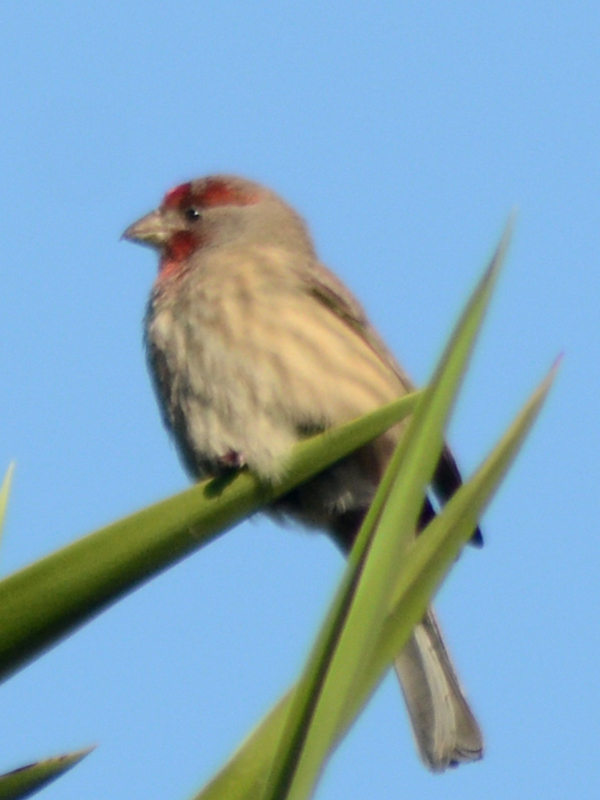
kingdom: Animalia
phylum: Chordata
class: Aves
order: Passeriformes
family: Fringillidae
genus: Haemorhous
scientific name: Haemorhous mexicanus
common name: House finch
